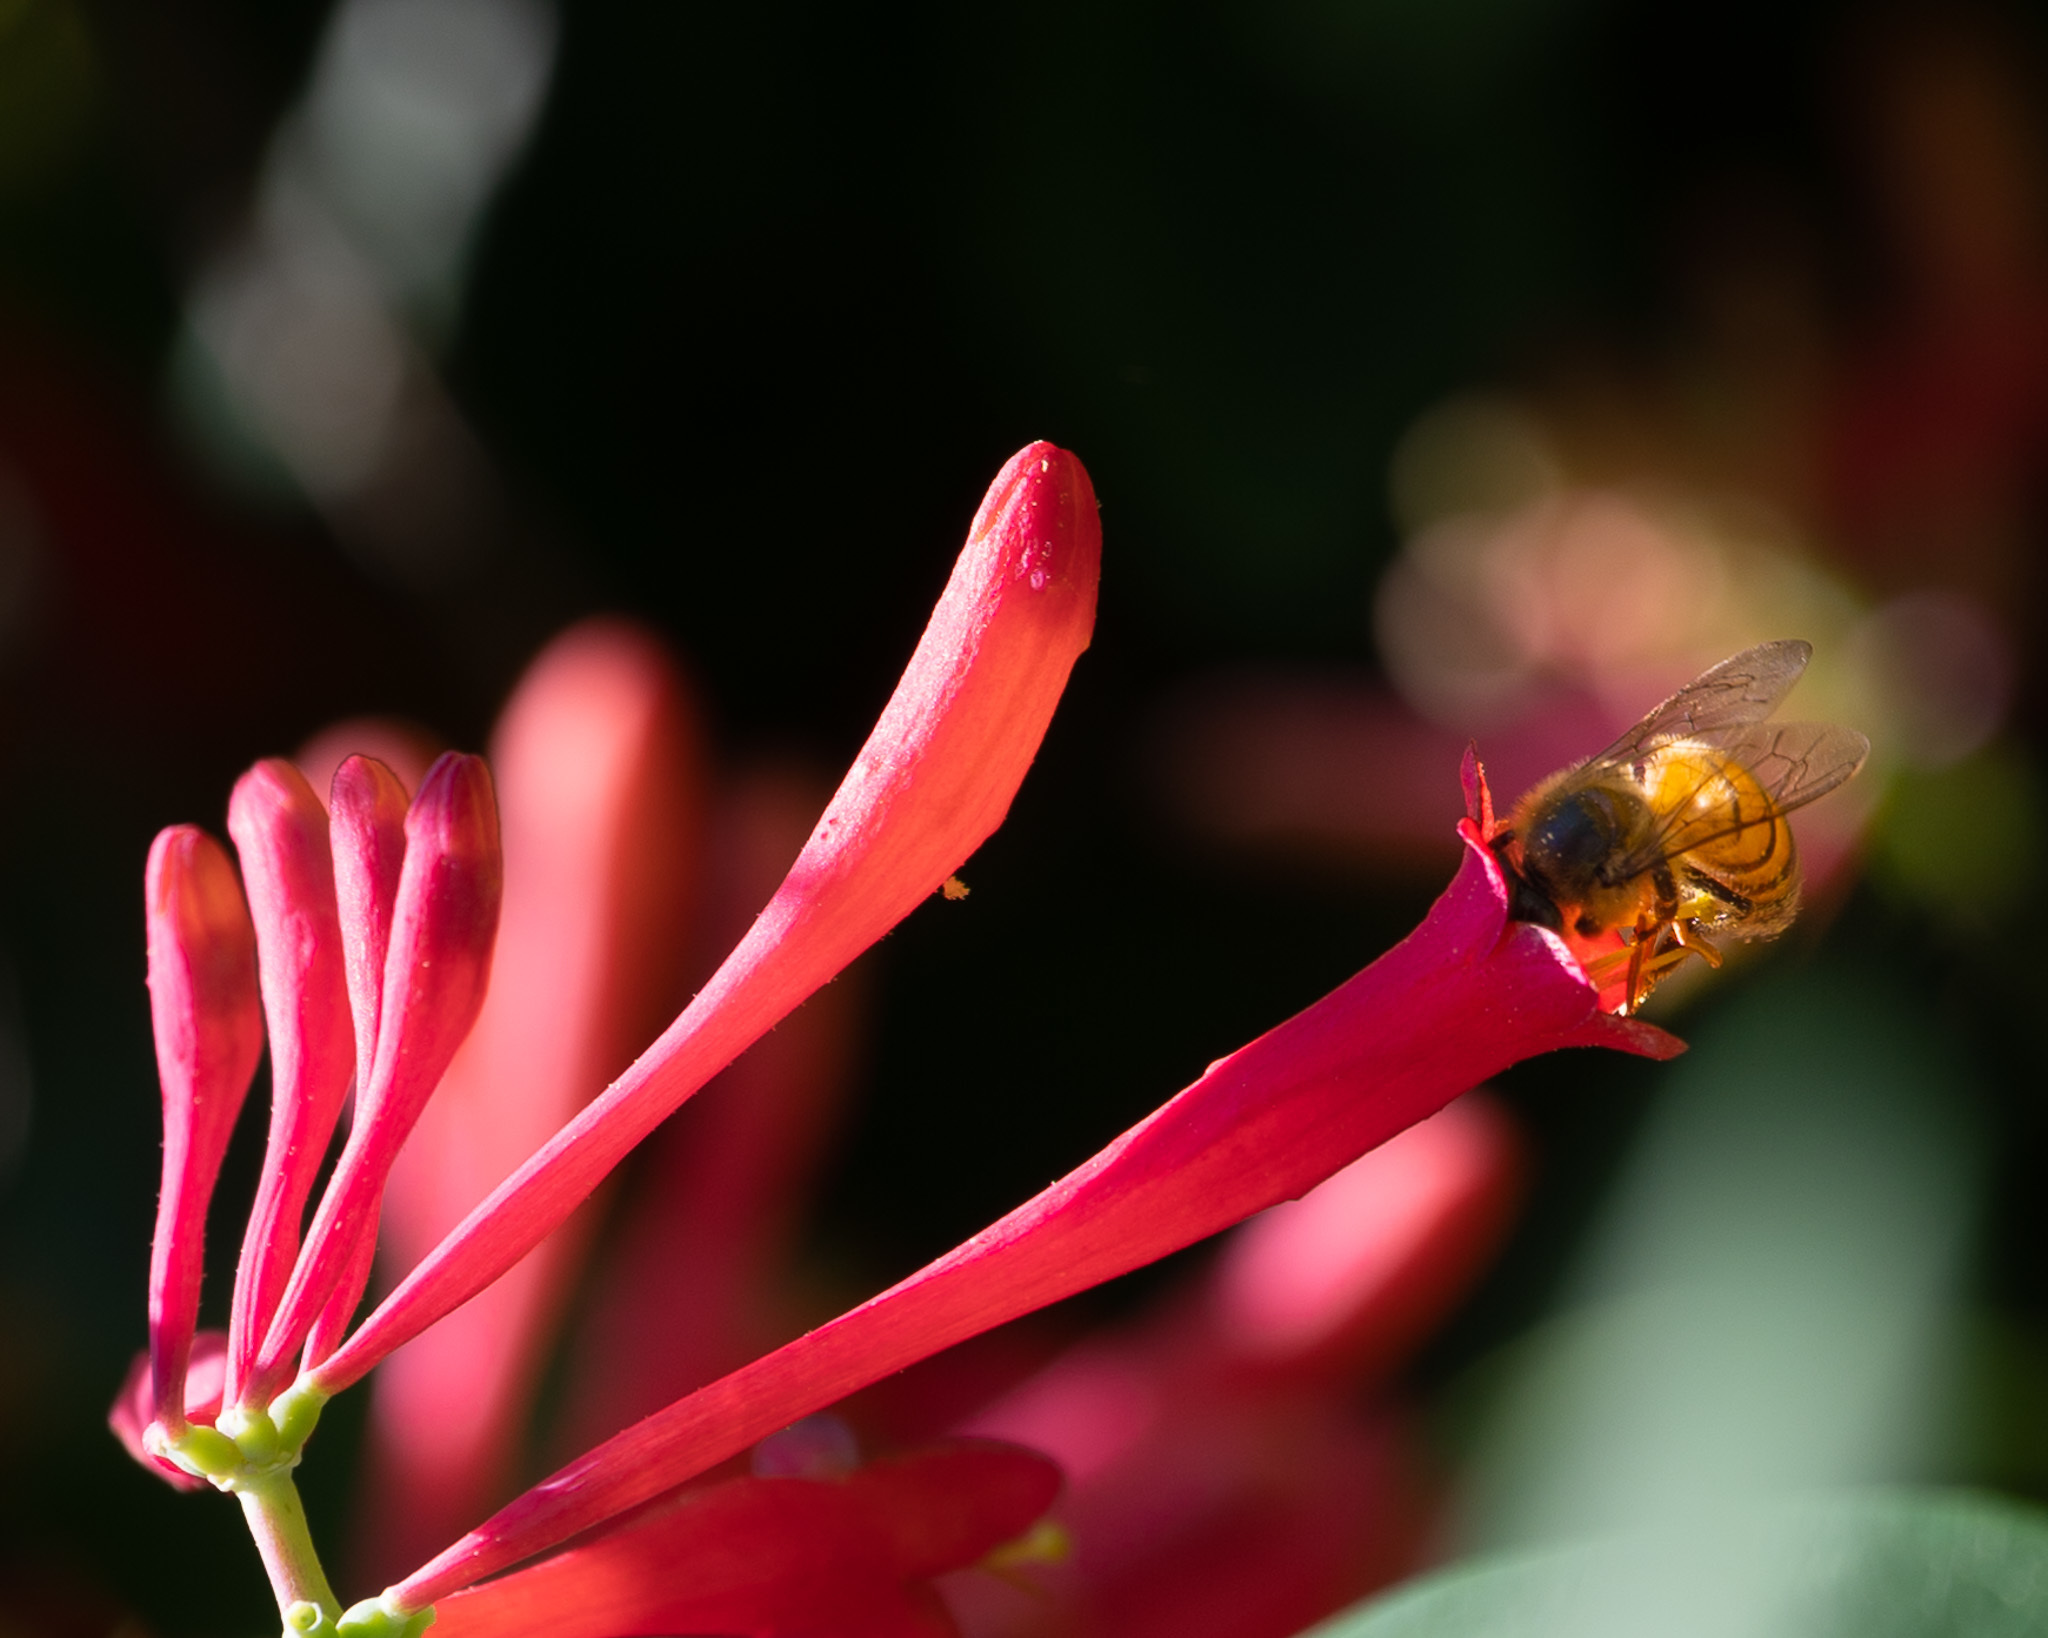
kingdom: Plantae
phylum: Tracheophyta
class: Magnoliopsida
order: Dipsacales
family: Caprifoliaceae
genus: Lonicera
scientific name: Lonicera sempervirens
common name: Coral honeysuckle
